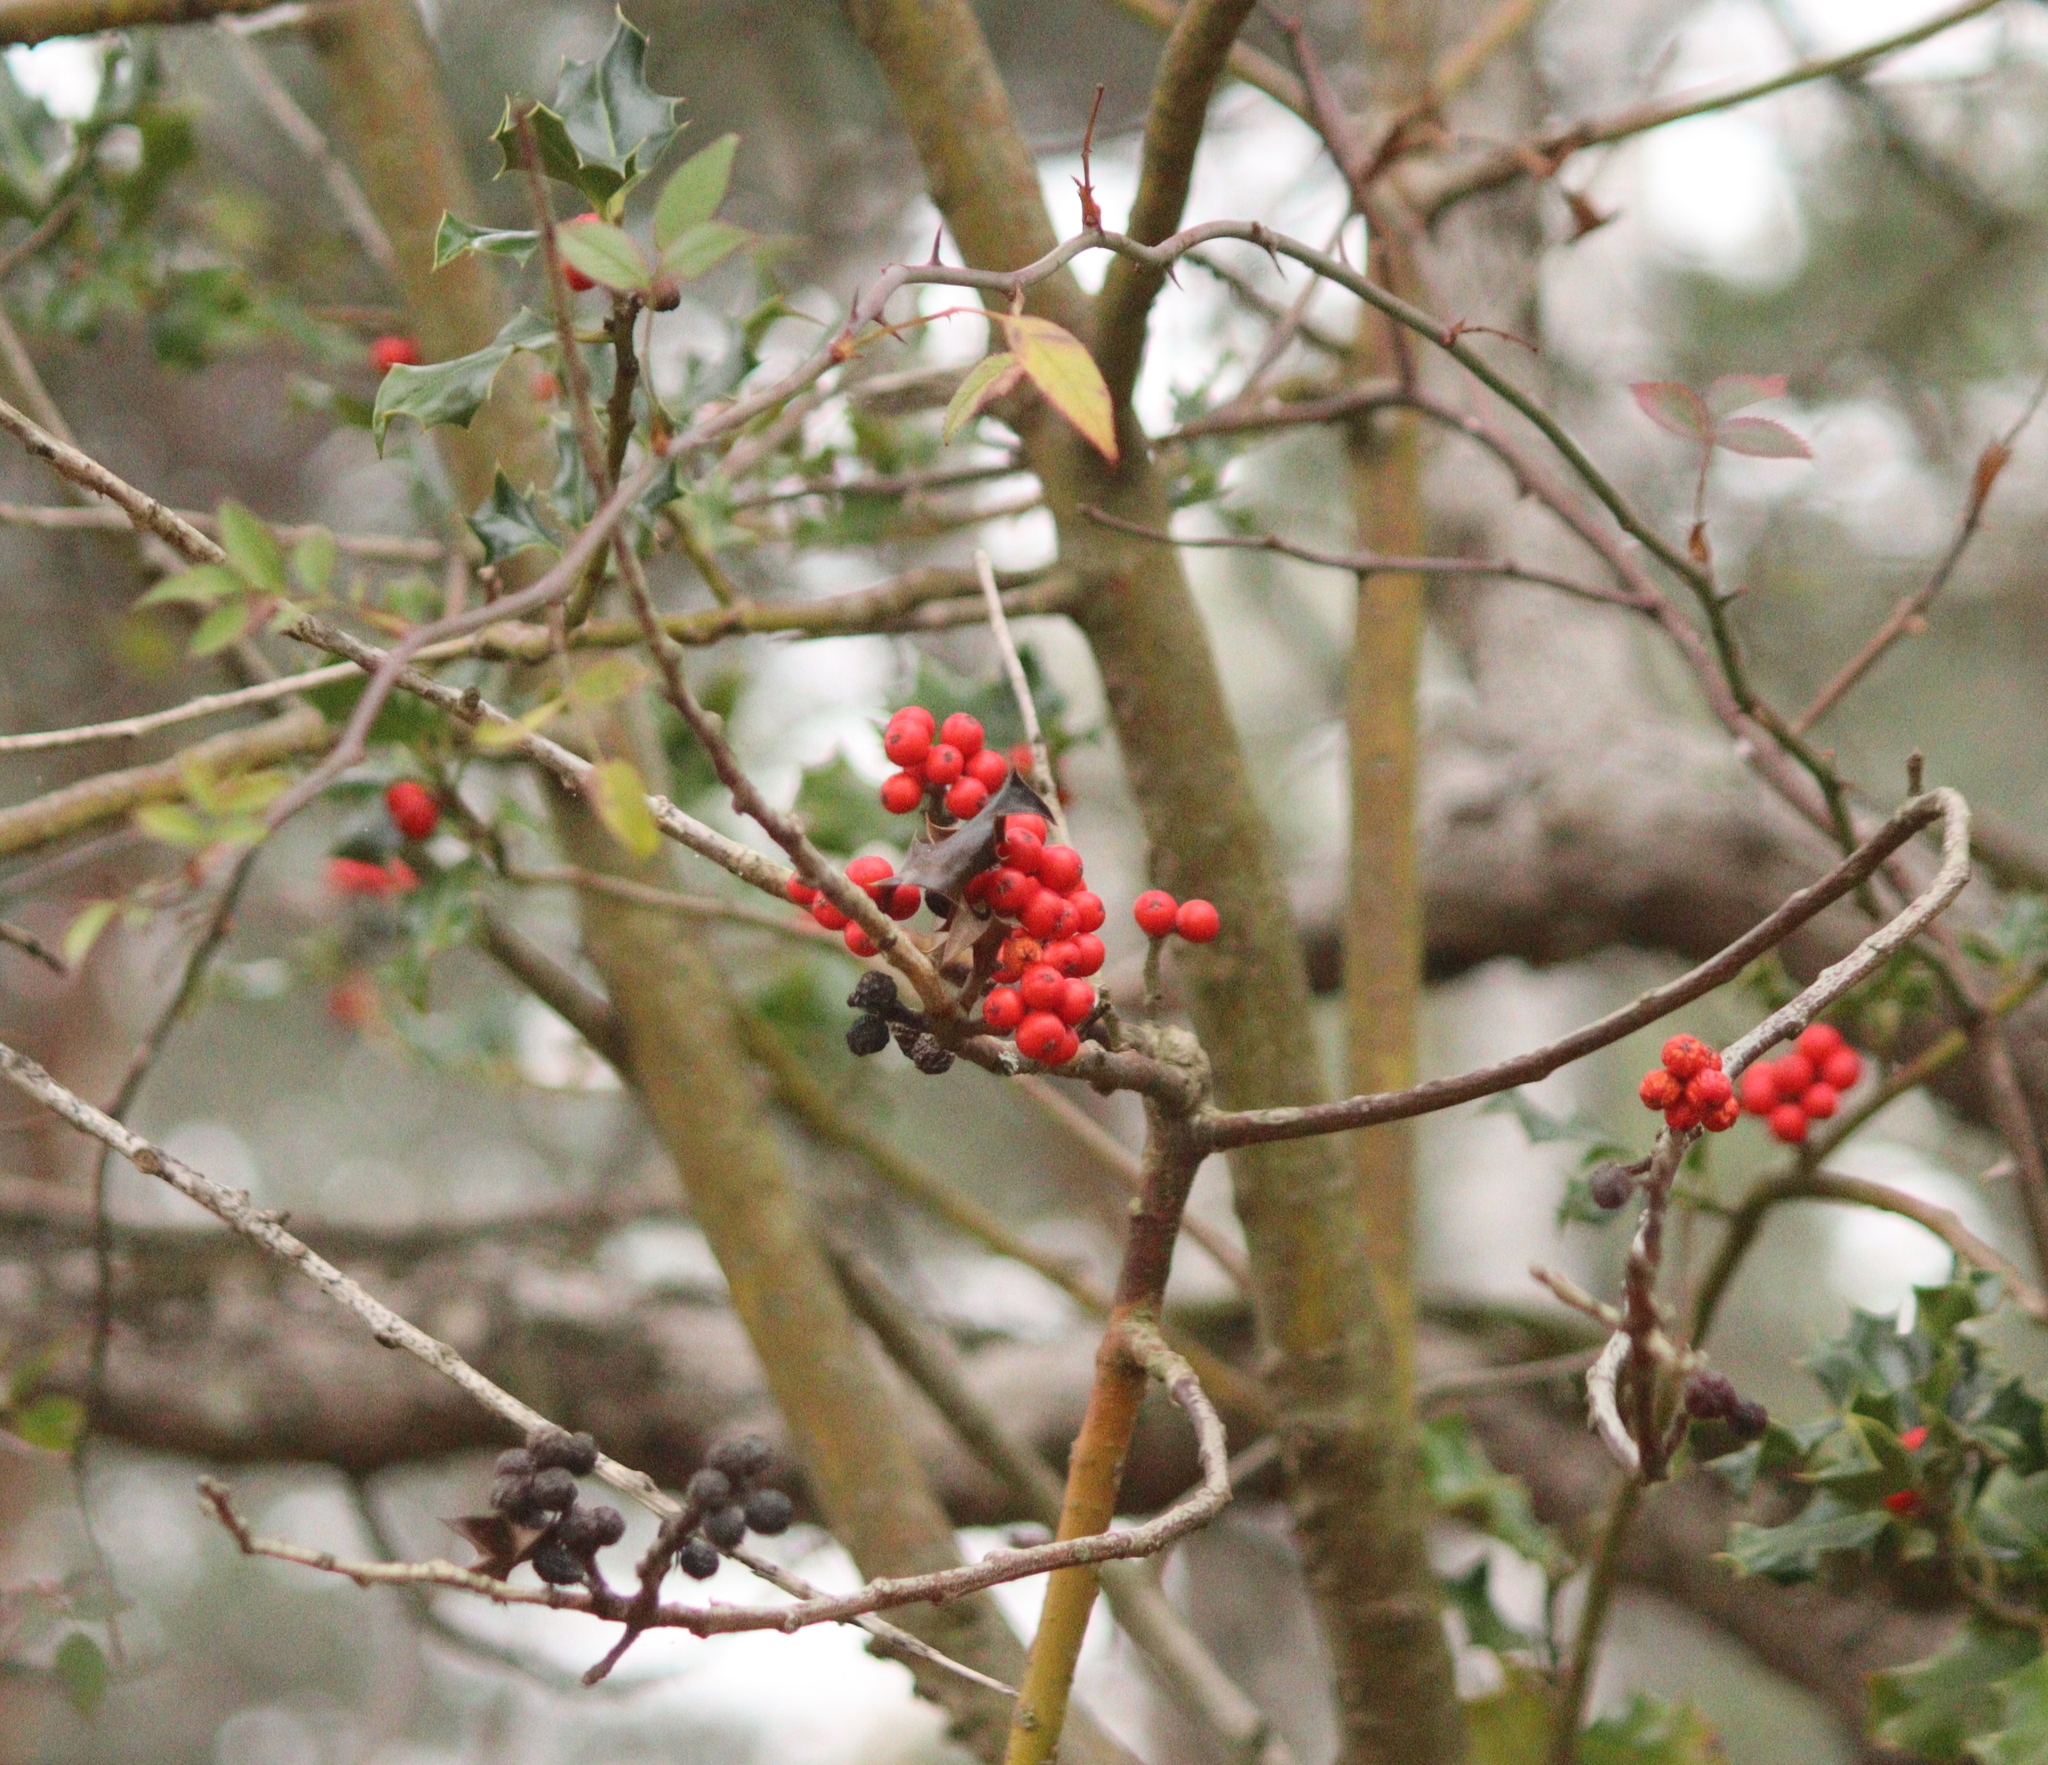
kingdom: Plantae
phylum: Tracheophyta
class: Magnoliopsida
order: Aquifoliales
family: Aquifoliaceae
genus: Ilex
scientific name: Ilex aquifolium
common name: English holly
